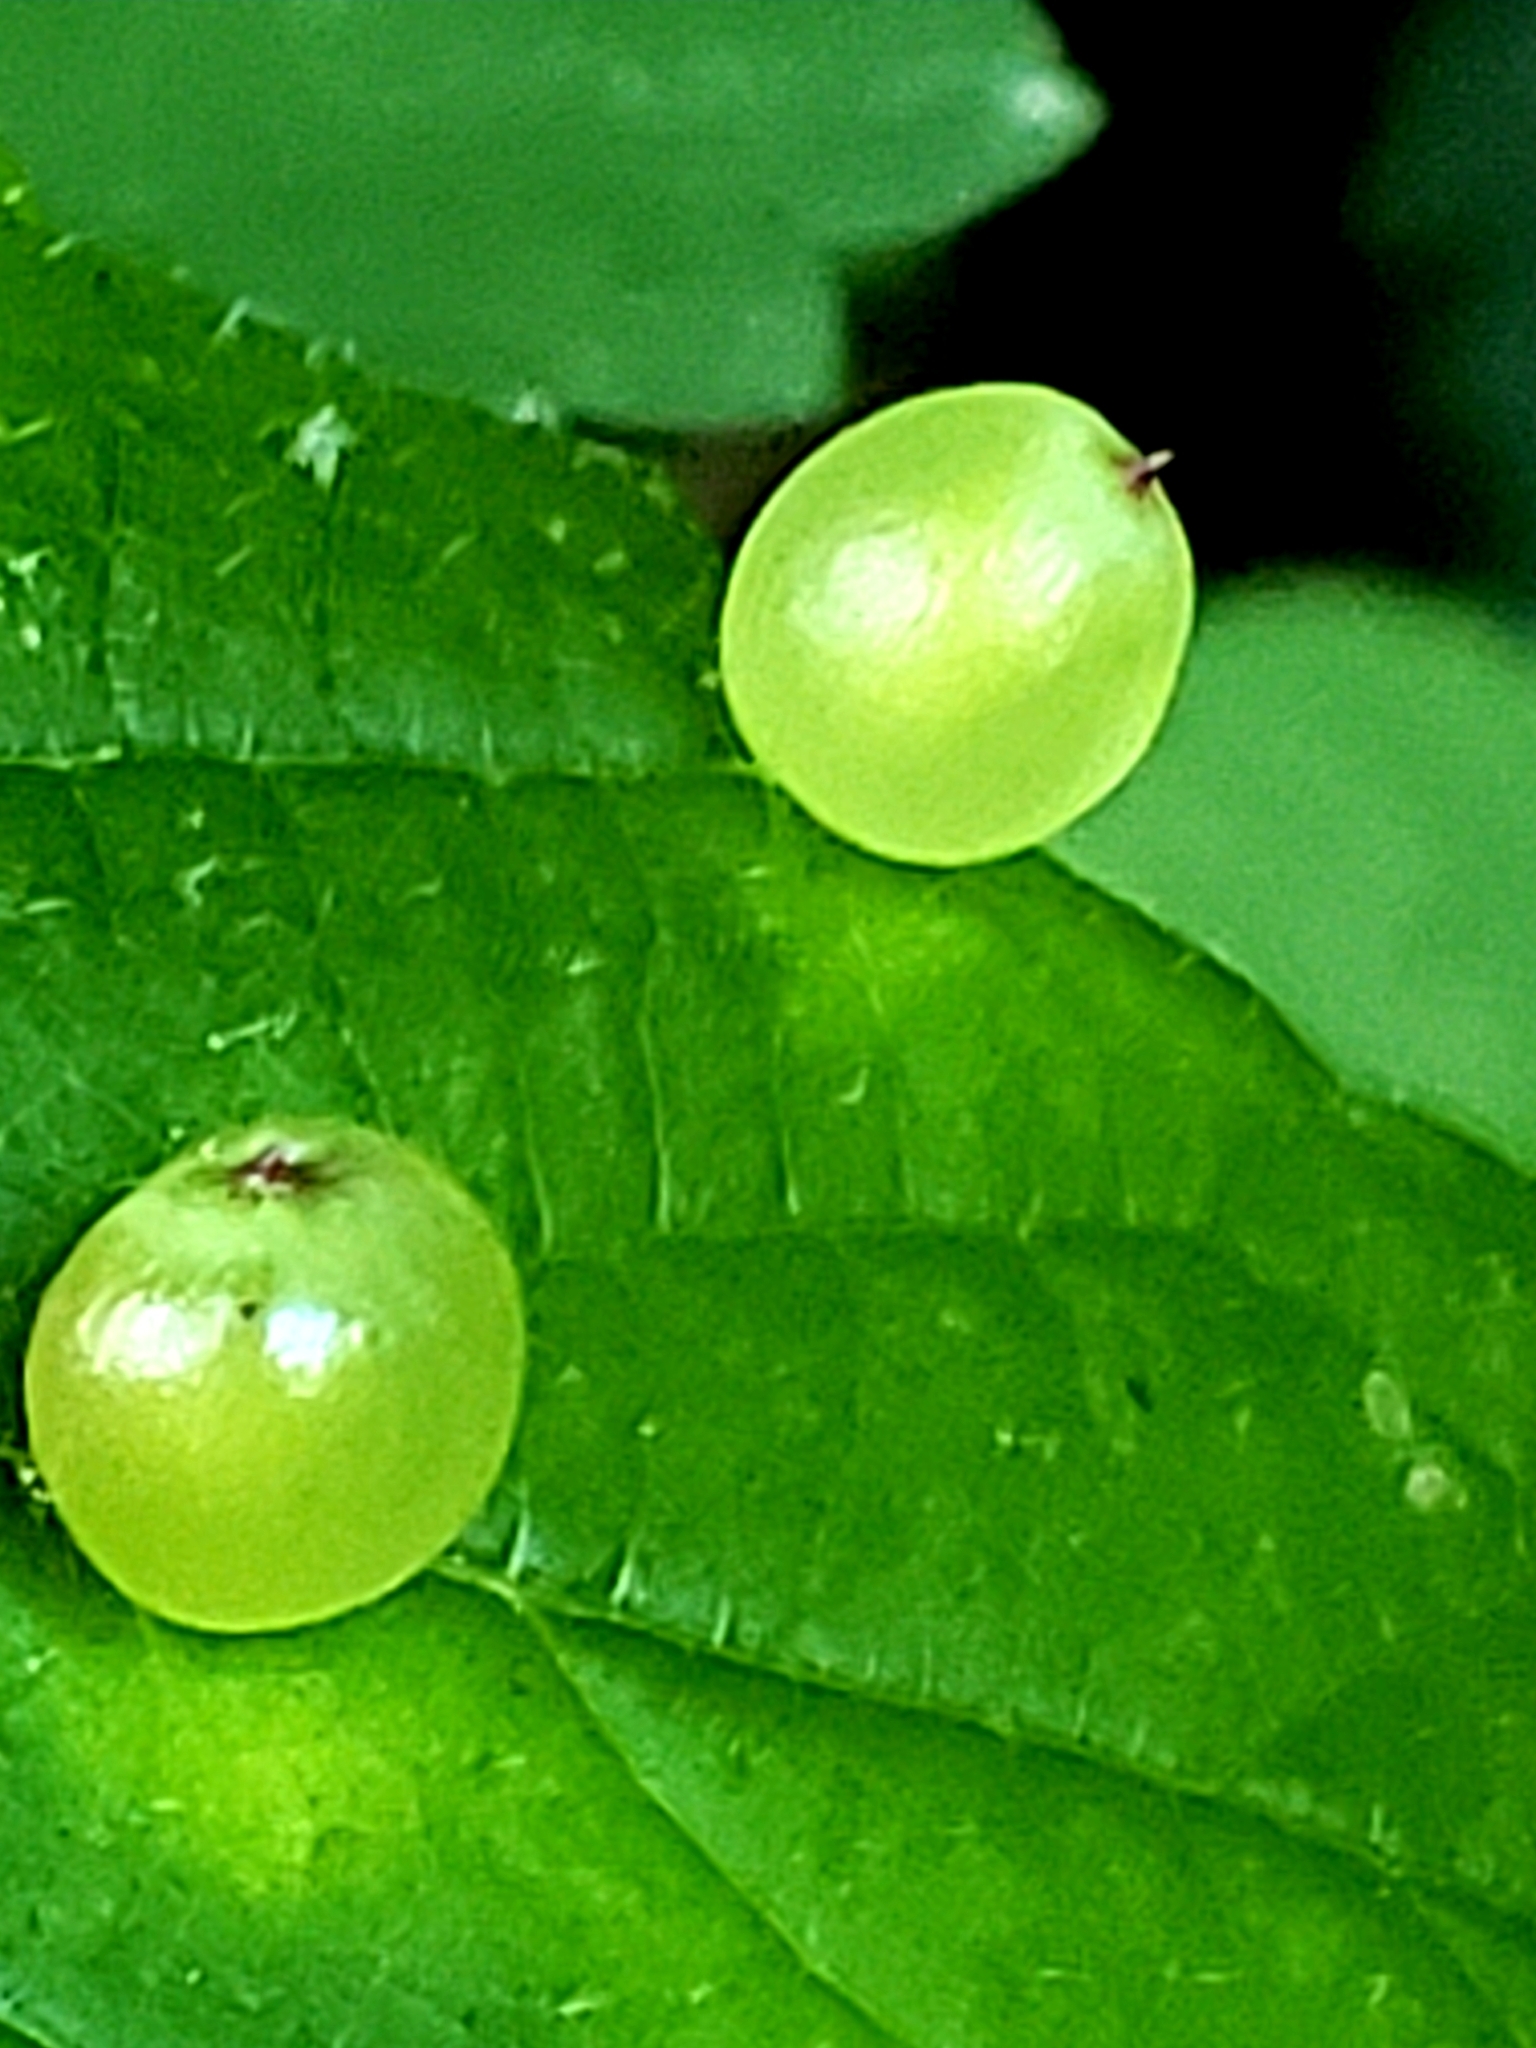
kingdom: Animalia
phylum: Arthropoda
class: Insecta
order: Diptera
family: Cecidomyiidae
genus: Dasineura
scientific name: Dasineura investita
